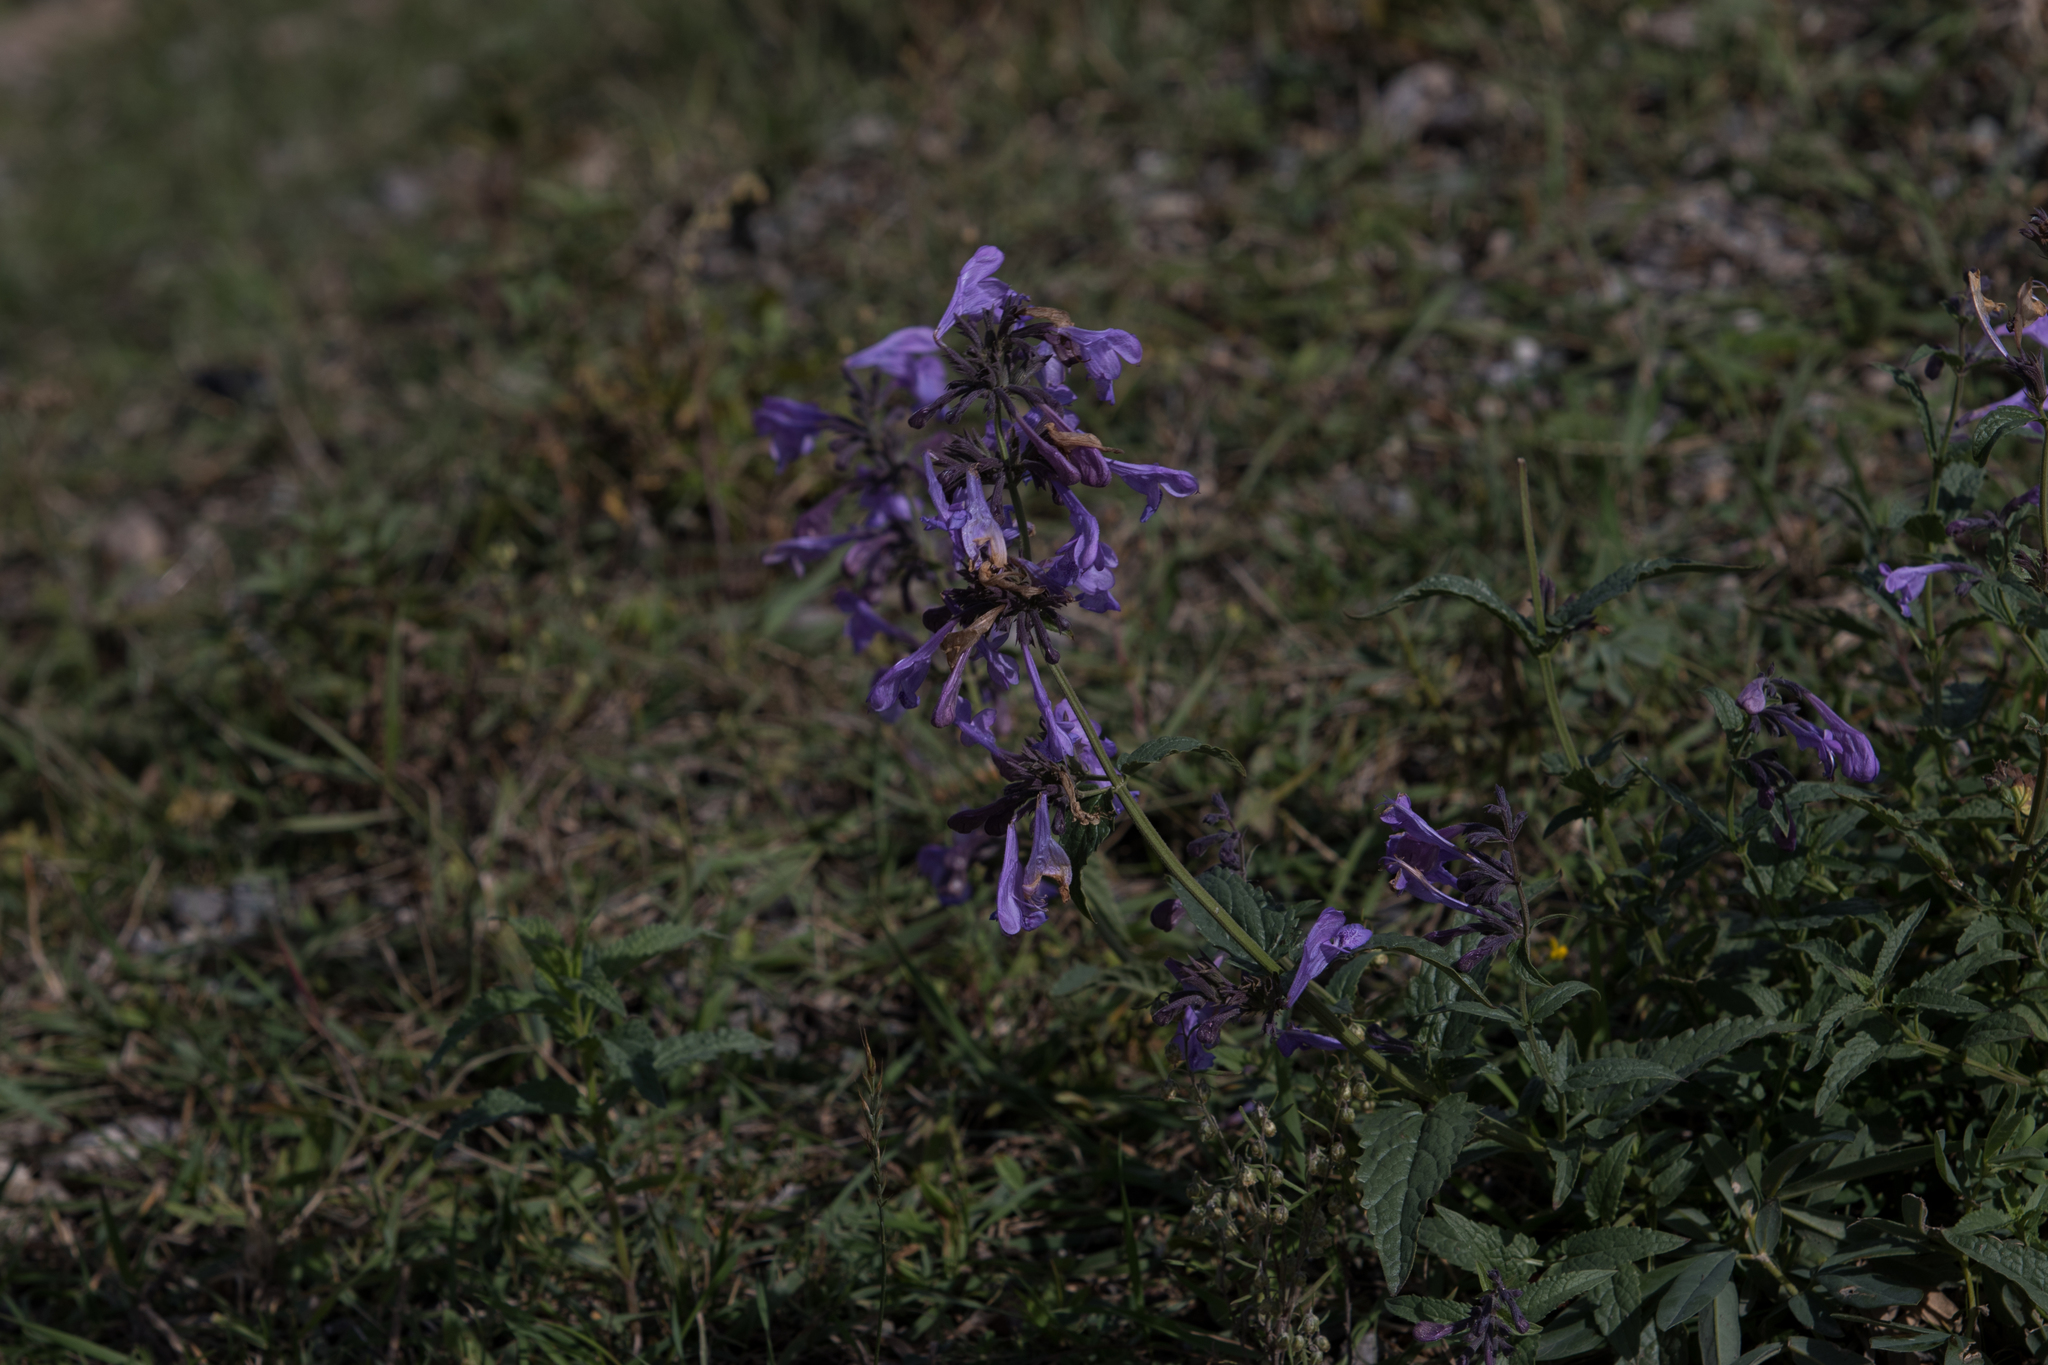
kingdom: Plantae
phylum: Tracheophyta
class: Magnoliopsida
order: Lamiales
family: Lamiaceae
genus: Nepeta
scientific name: Nepeta sibirica
